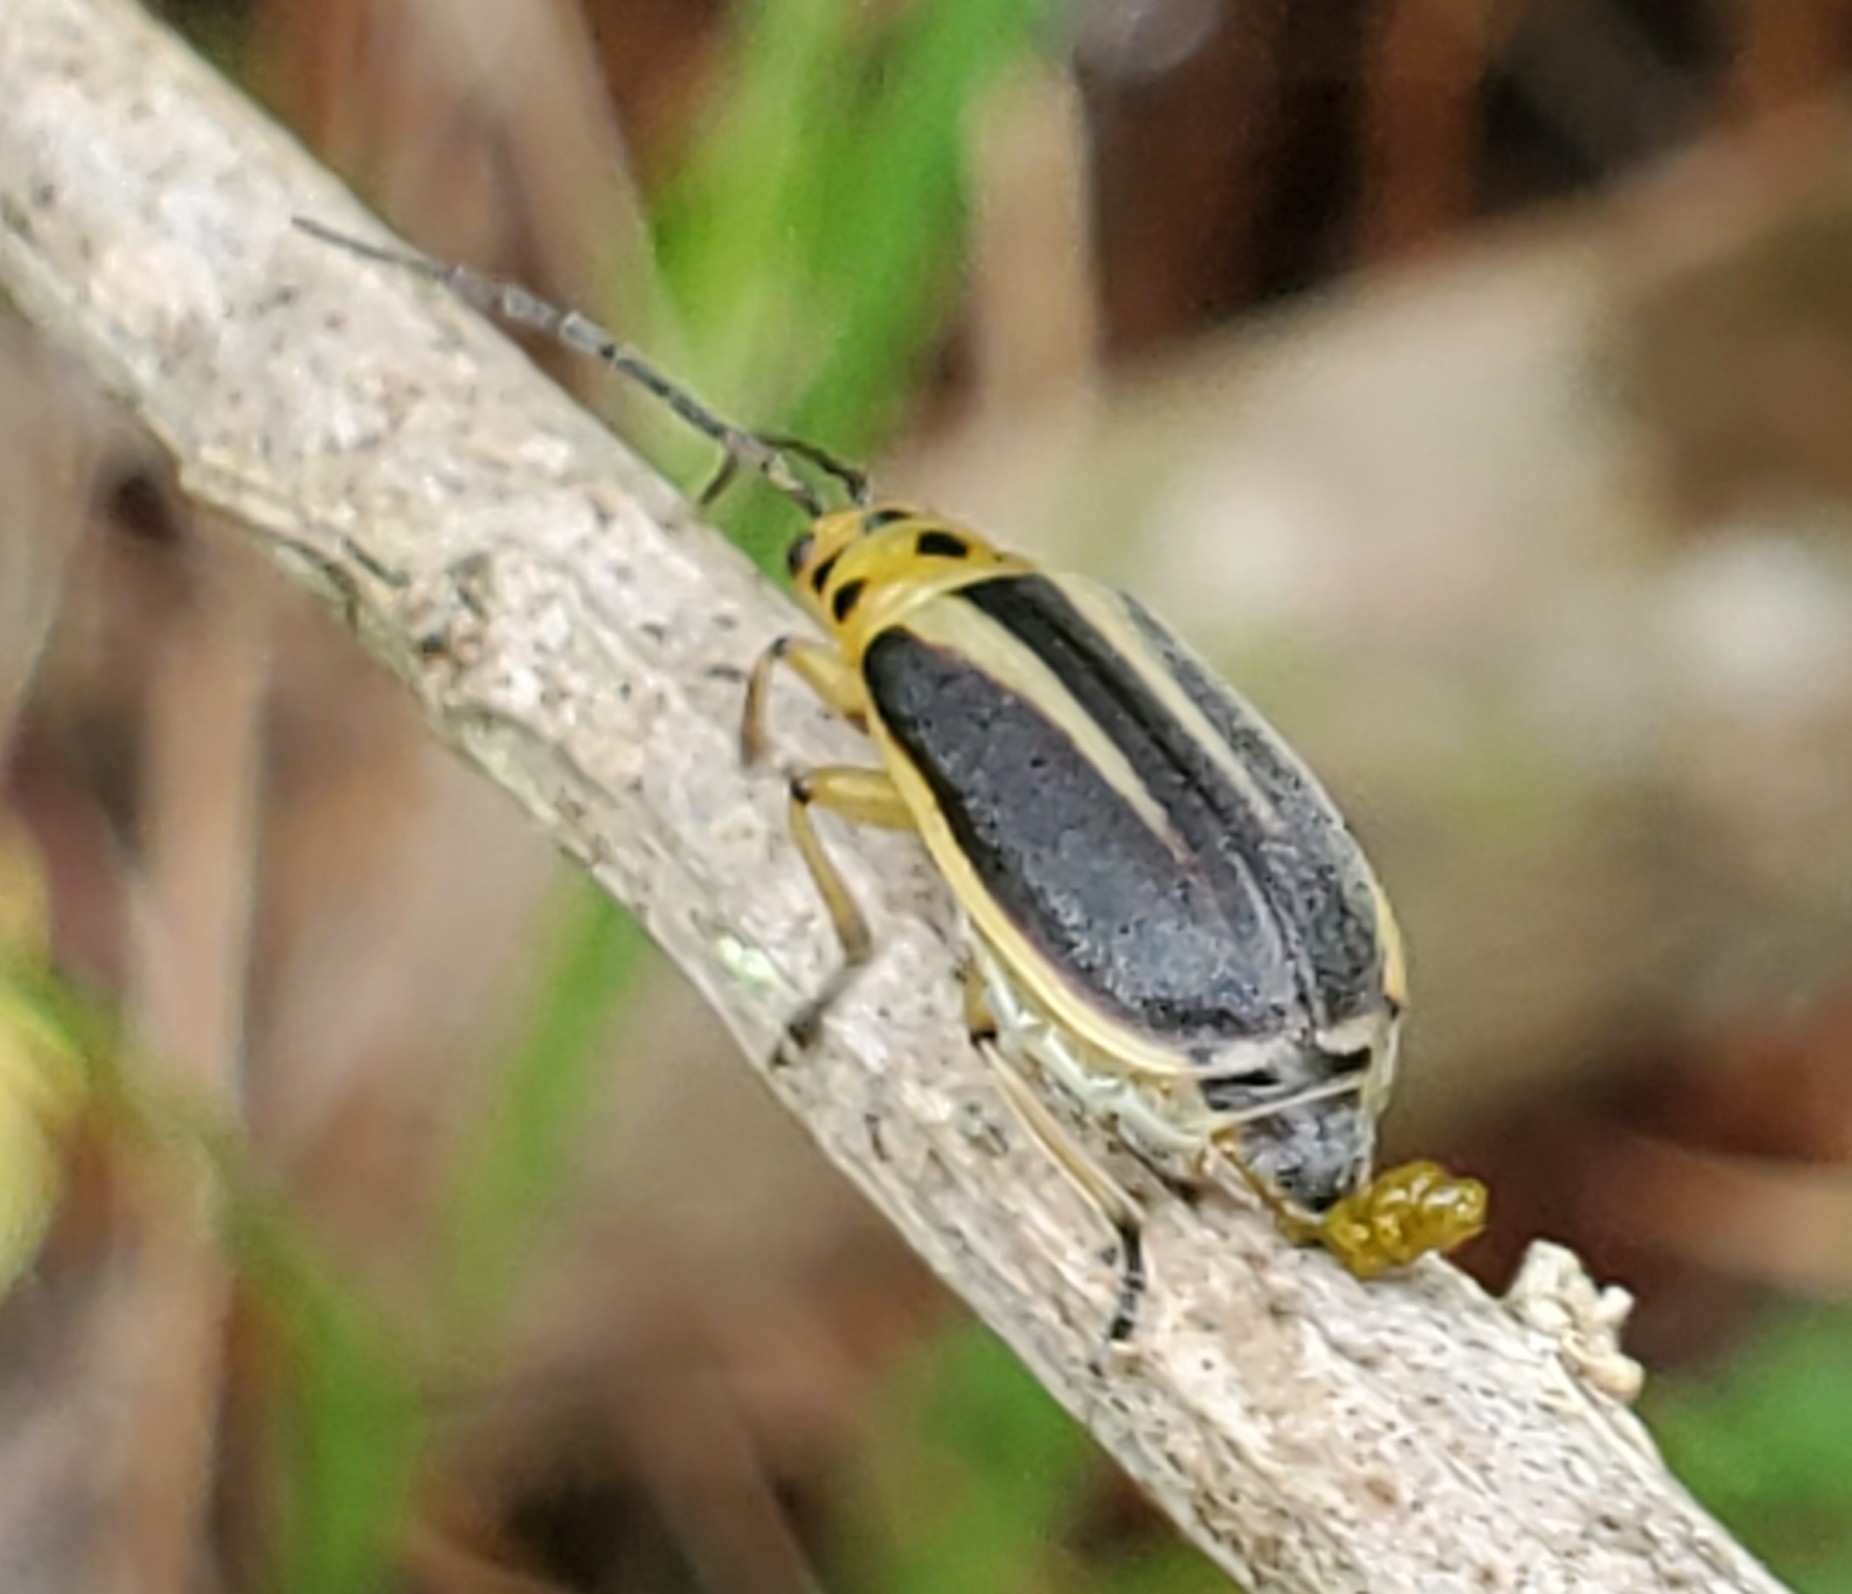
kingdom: Animalia
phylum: Arthropoda
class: Insecta
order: Coleoptera
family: Chrysomelidae
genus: Trirhabda
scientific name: Trirhabda bacharidis
